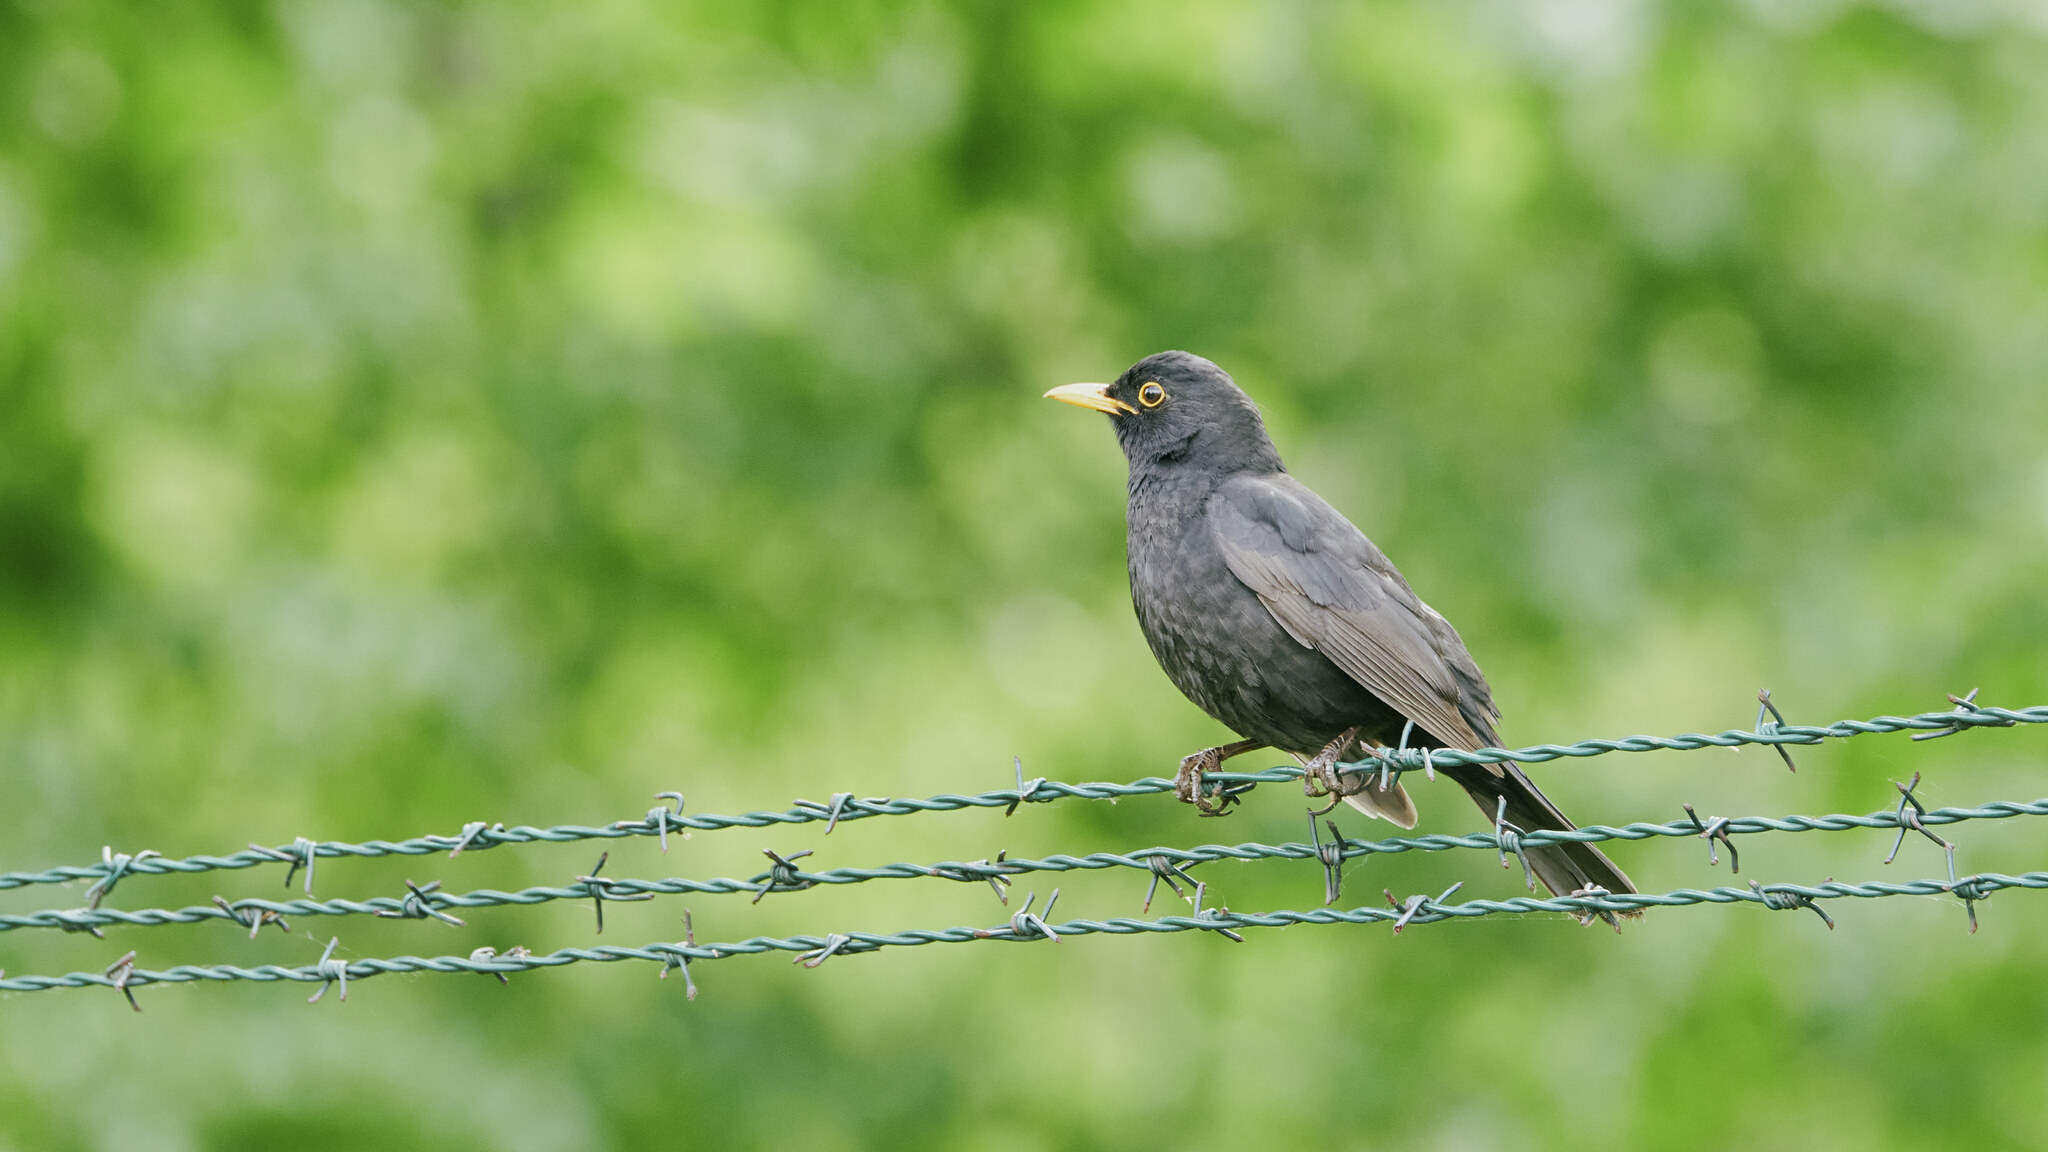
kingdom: Animalia
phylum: Chordata
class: Aves
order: Passeriformes
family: Turdidae
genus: Turdus
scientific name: Turdus merula
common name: Common blackbird
